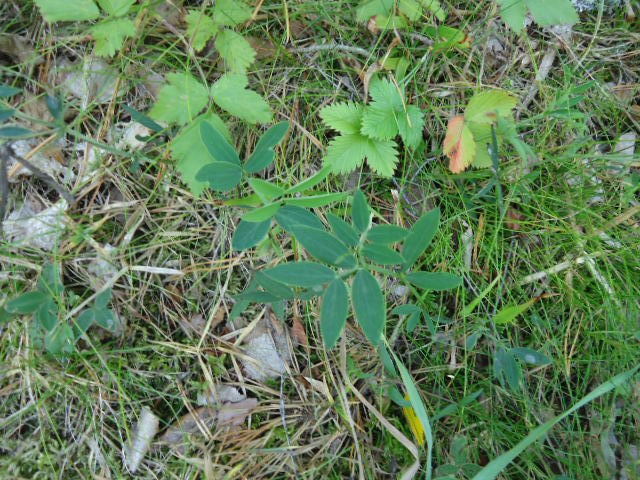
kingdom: Plantae
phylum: Tracheophyta
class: Magnoliopsida
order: Fabales
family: Fabaceae
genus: Lathyrus
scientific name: Lathyrus linifolius
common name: Bitter-vetch
